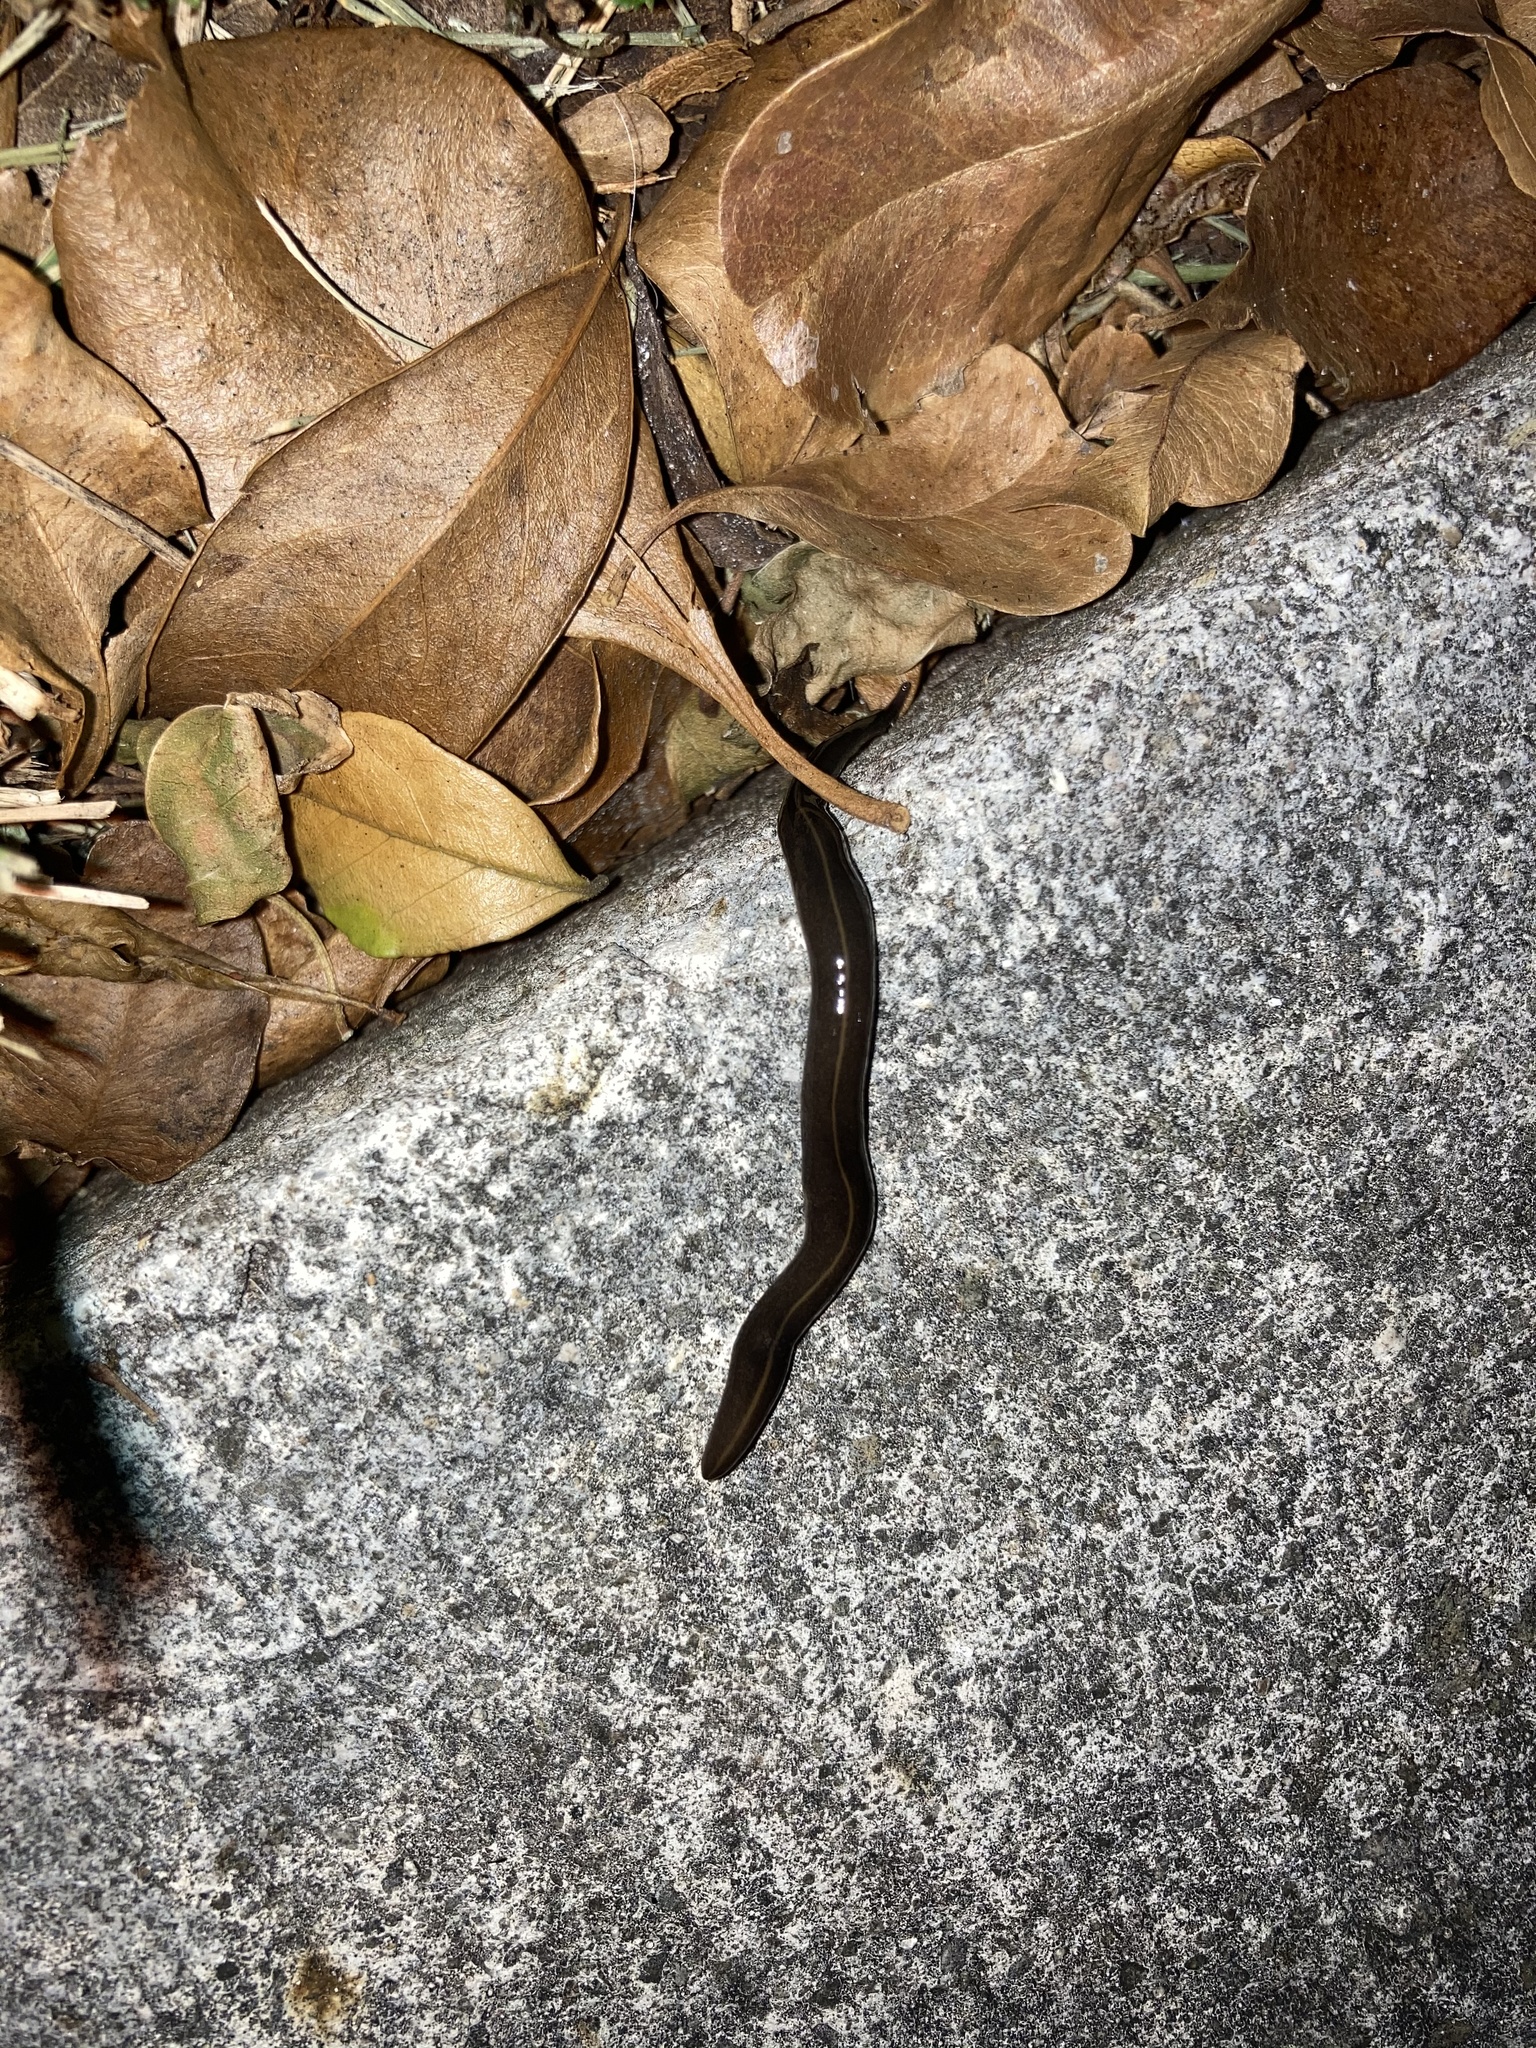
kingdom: Animalia
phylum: Platyhelminthes
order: Tricladida
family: Geoplanidae
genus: Platydemus
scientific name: Platydemus manokwari
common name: New guinea flatworm
